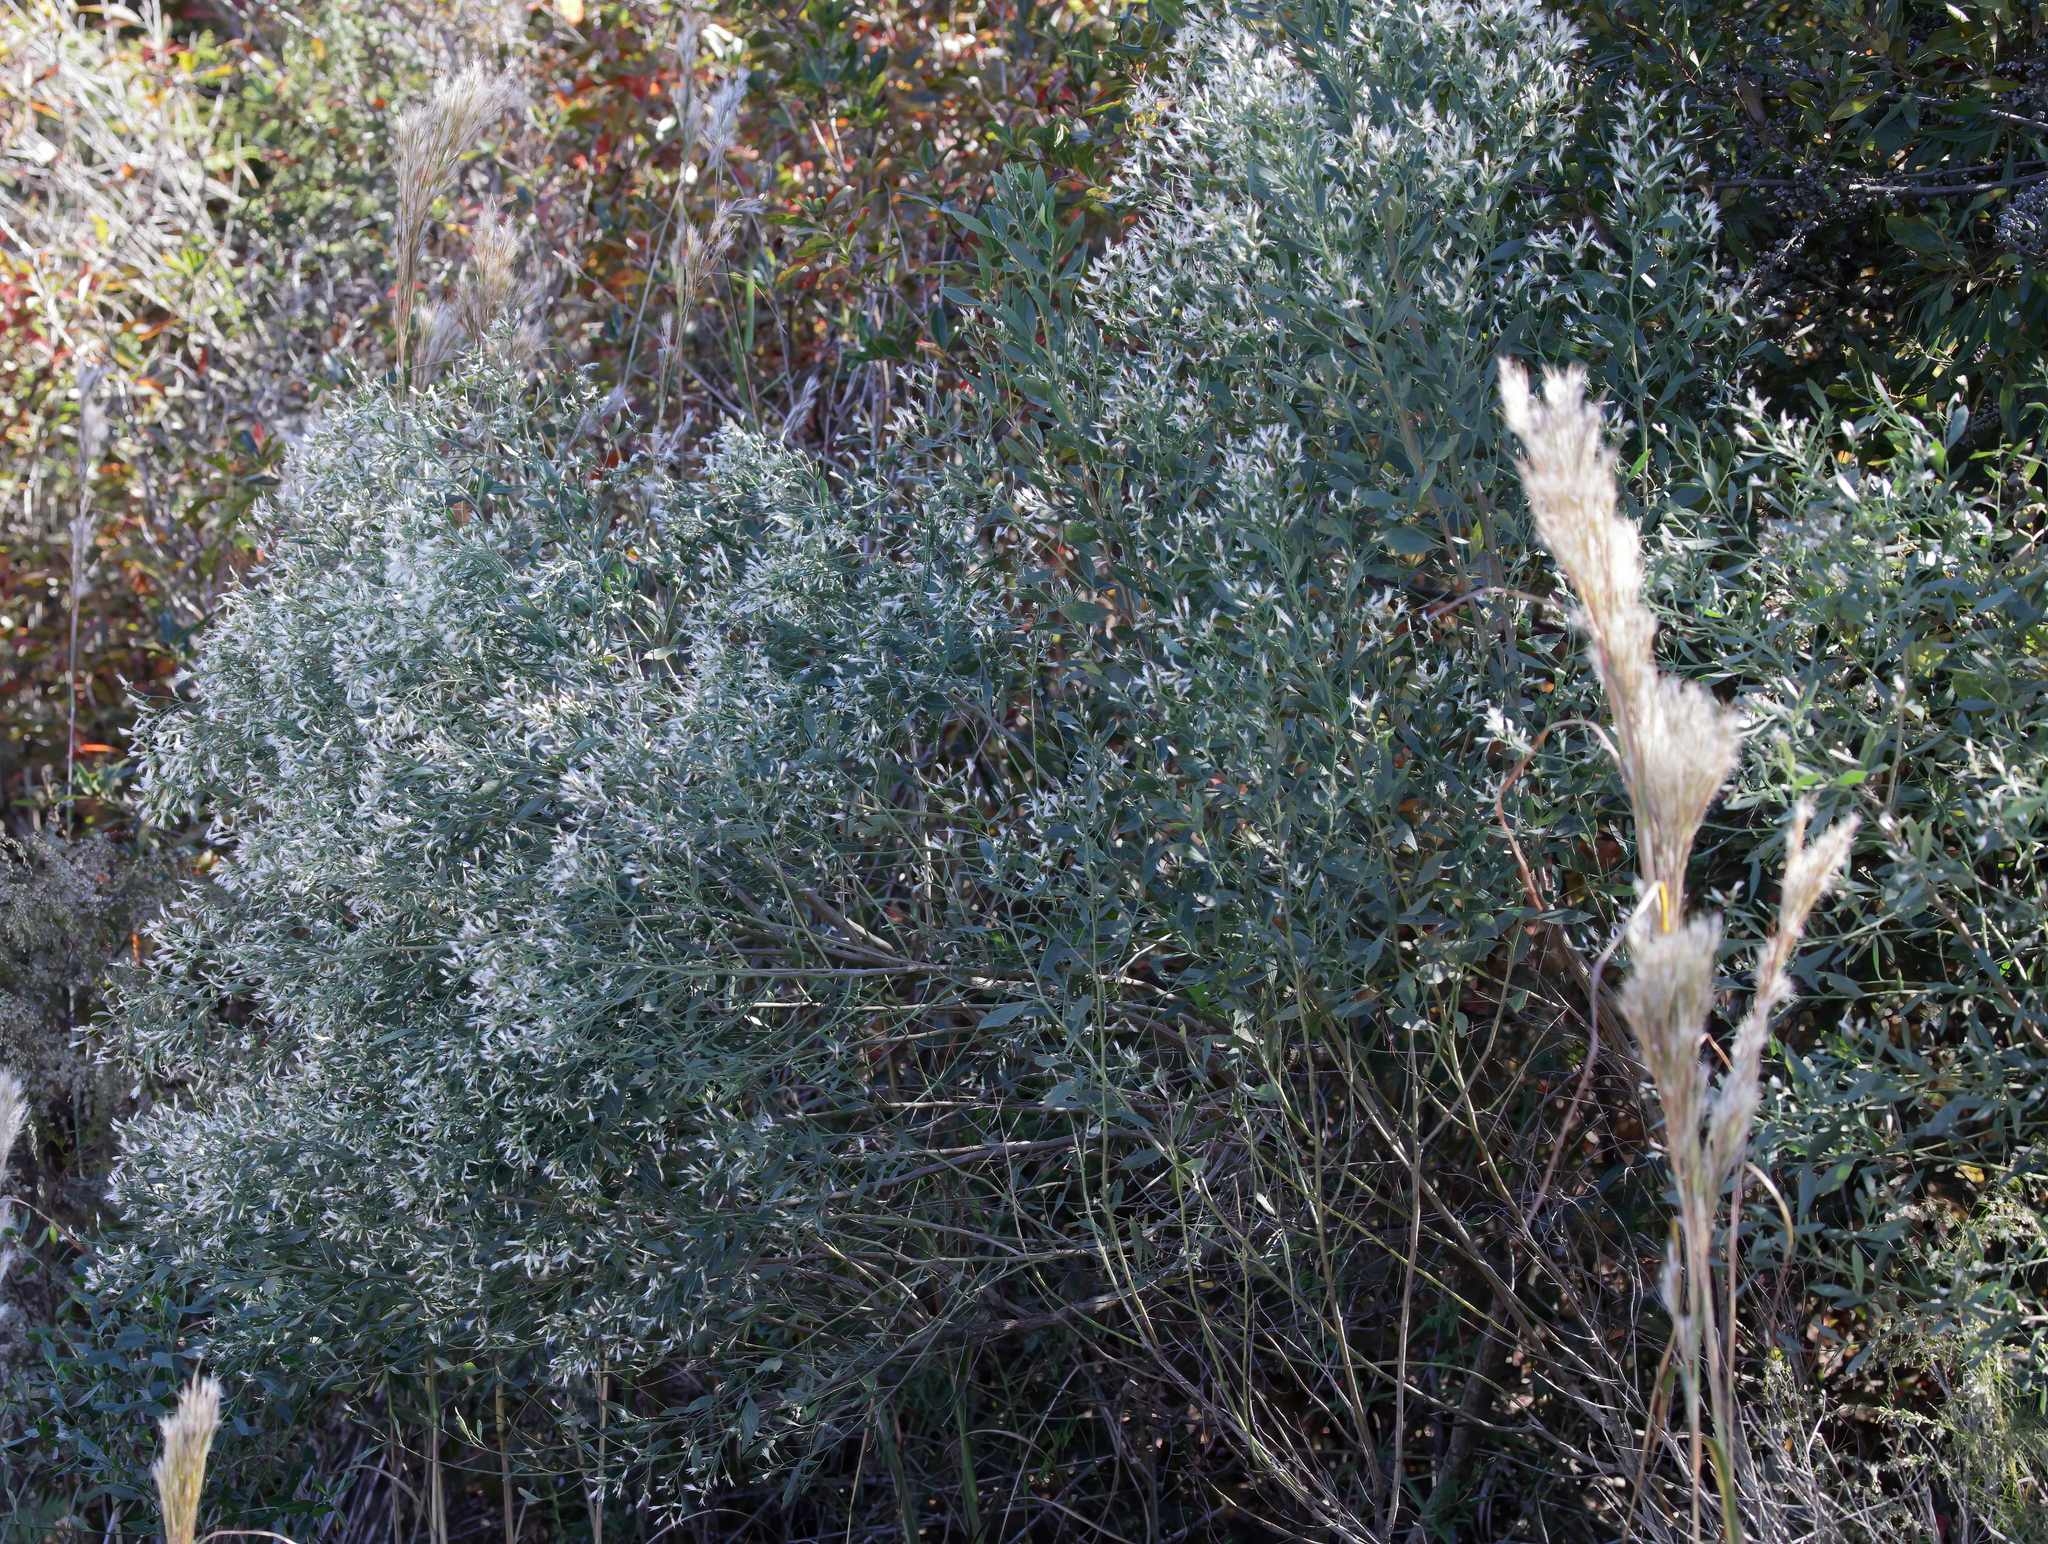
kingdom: Plantae
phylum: Tracheophyta
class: Magnoliopsida
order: Asterales
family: Asteraceae
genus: Baccharis
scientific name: Baccharis halimifolia
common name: Eastern baccharis
